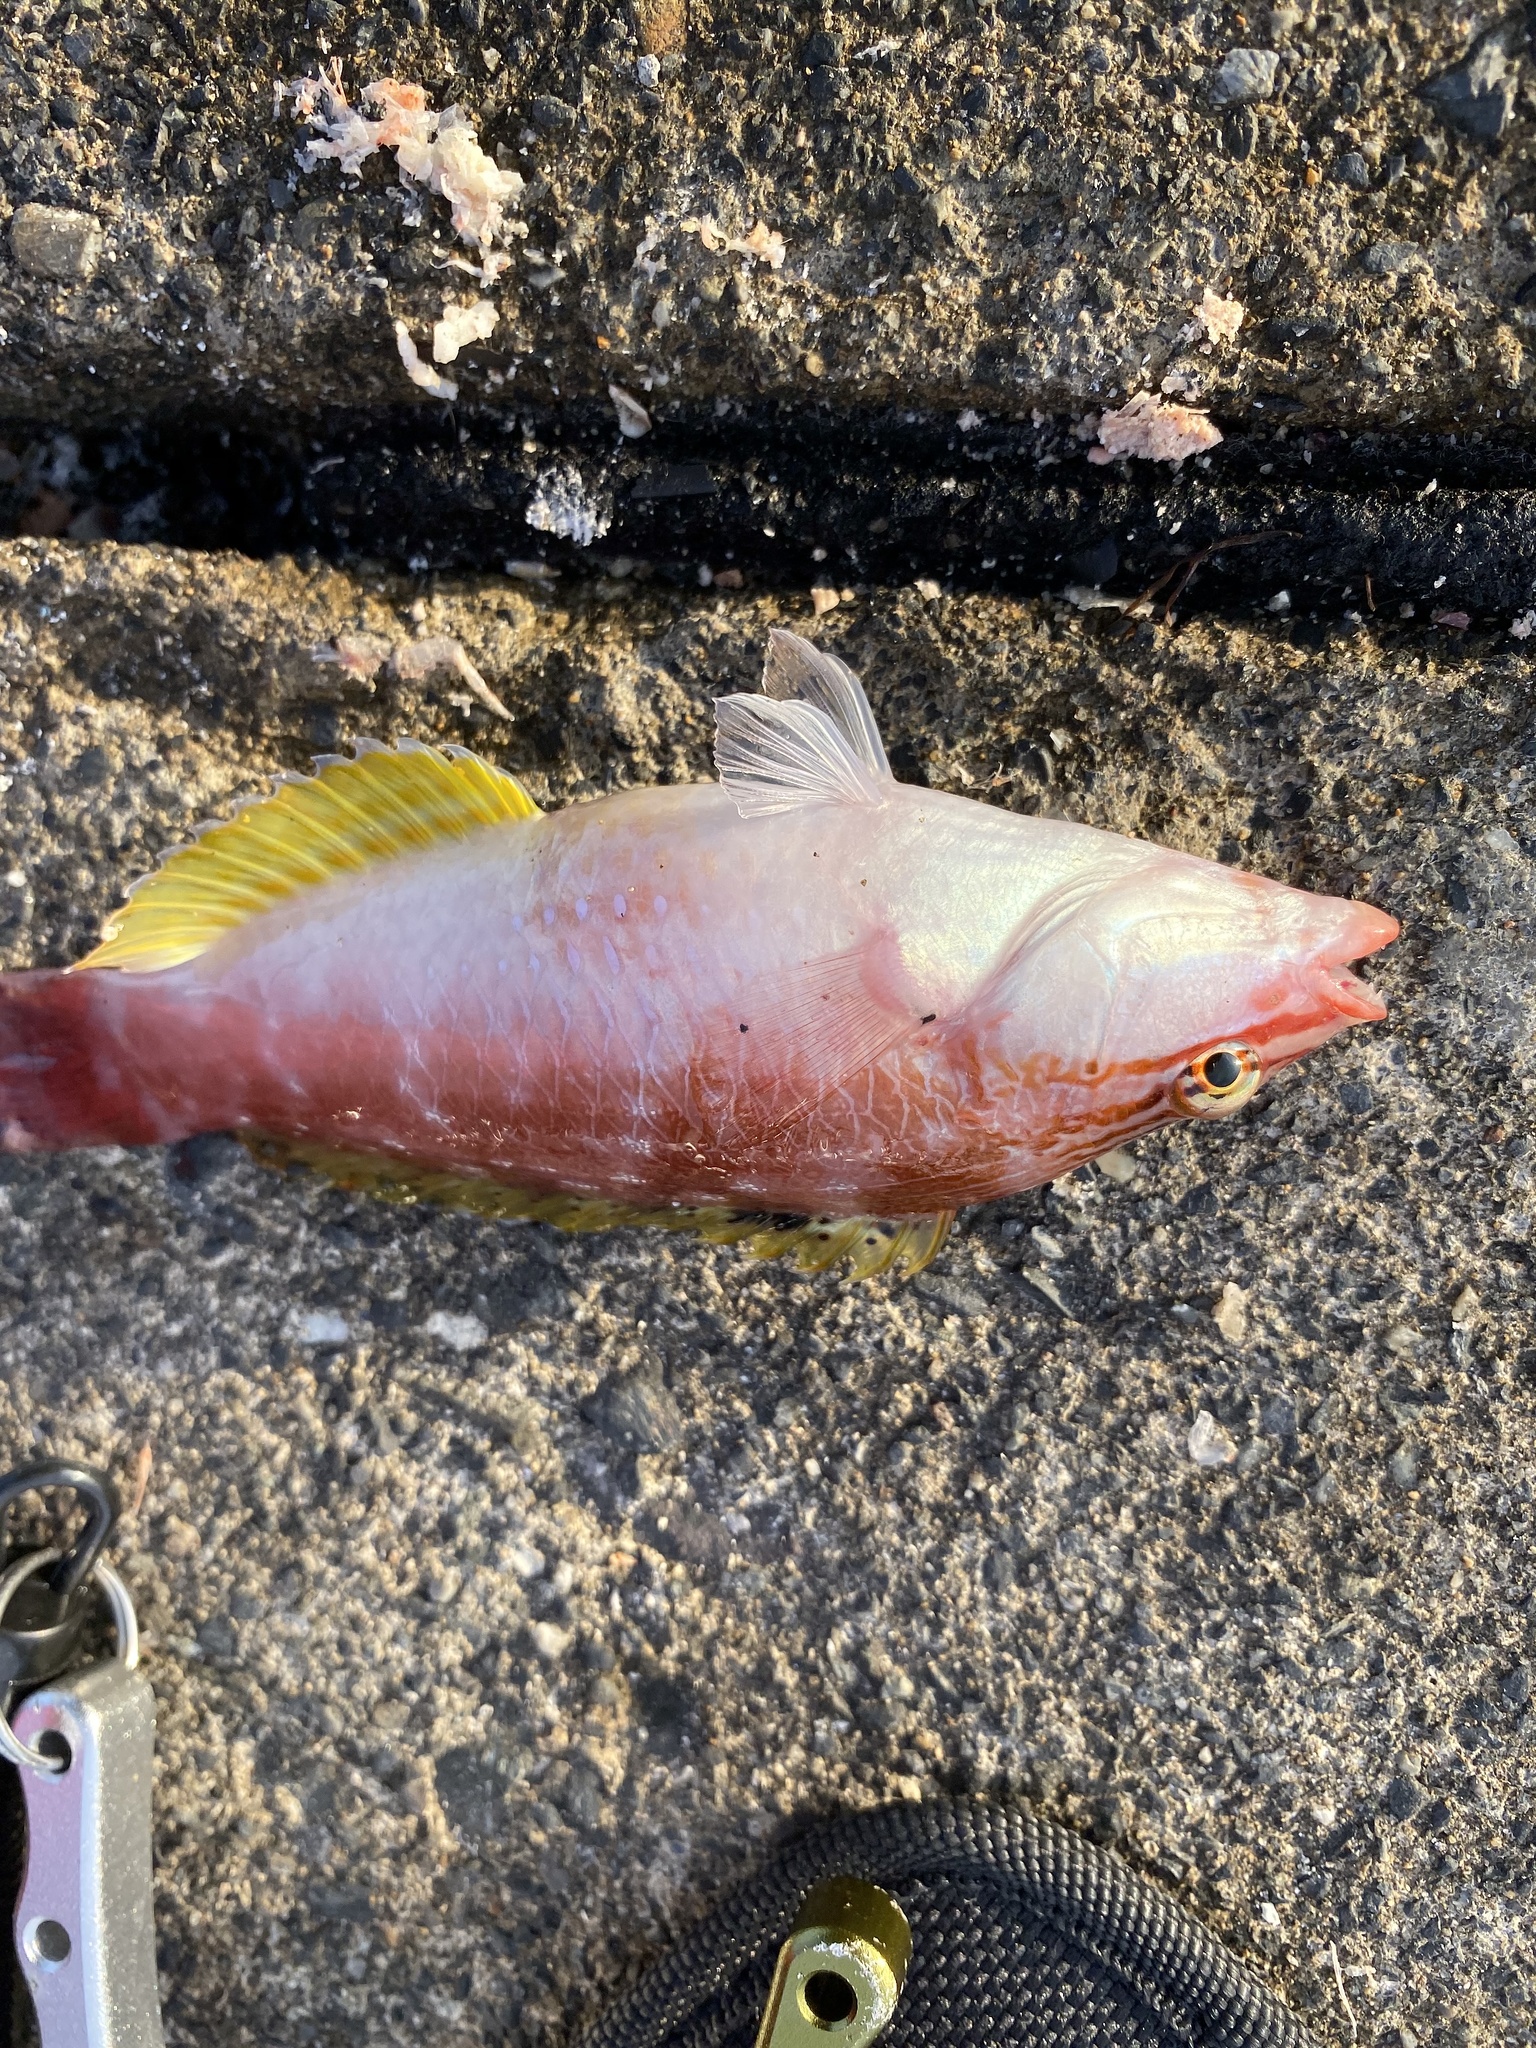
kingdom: Animalia
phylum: Chordata
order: Perciformes
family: Labridae
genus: Pseudolabrus
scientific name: Pseudolabrus sieboldi
